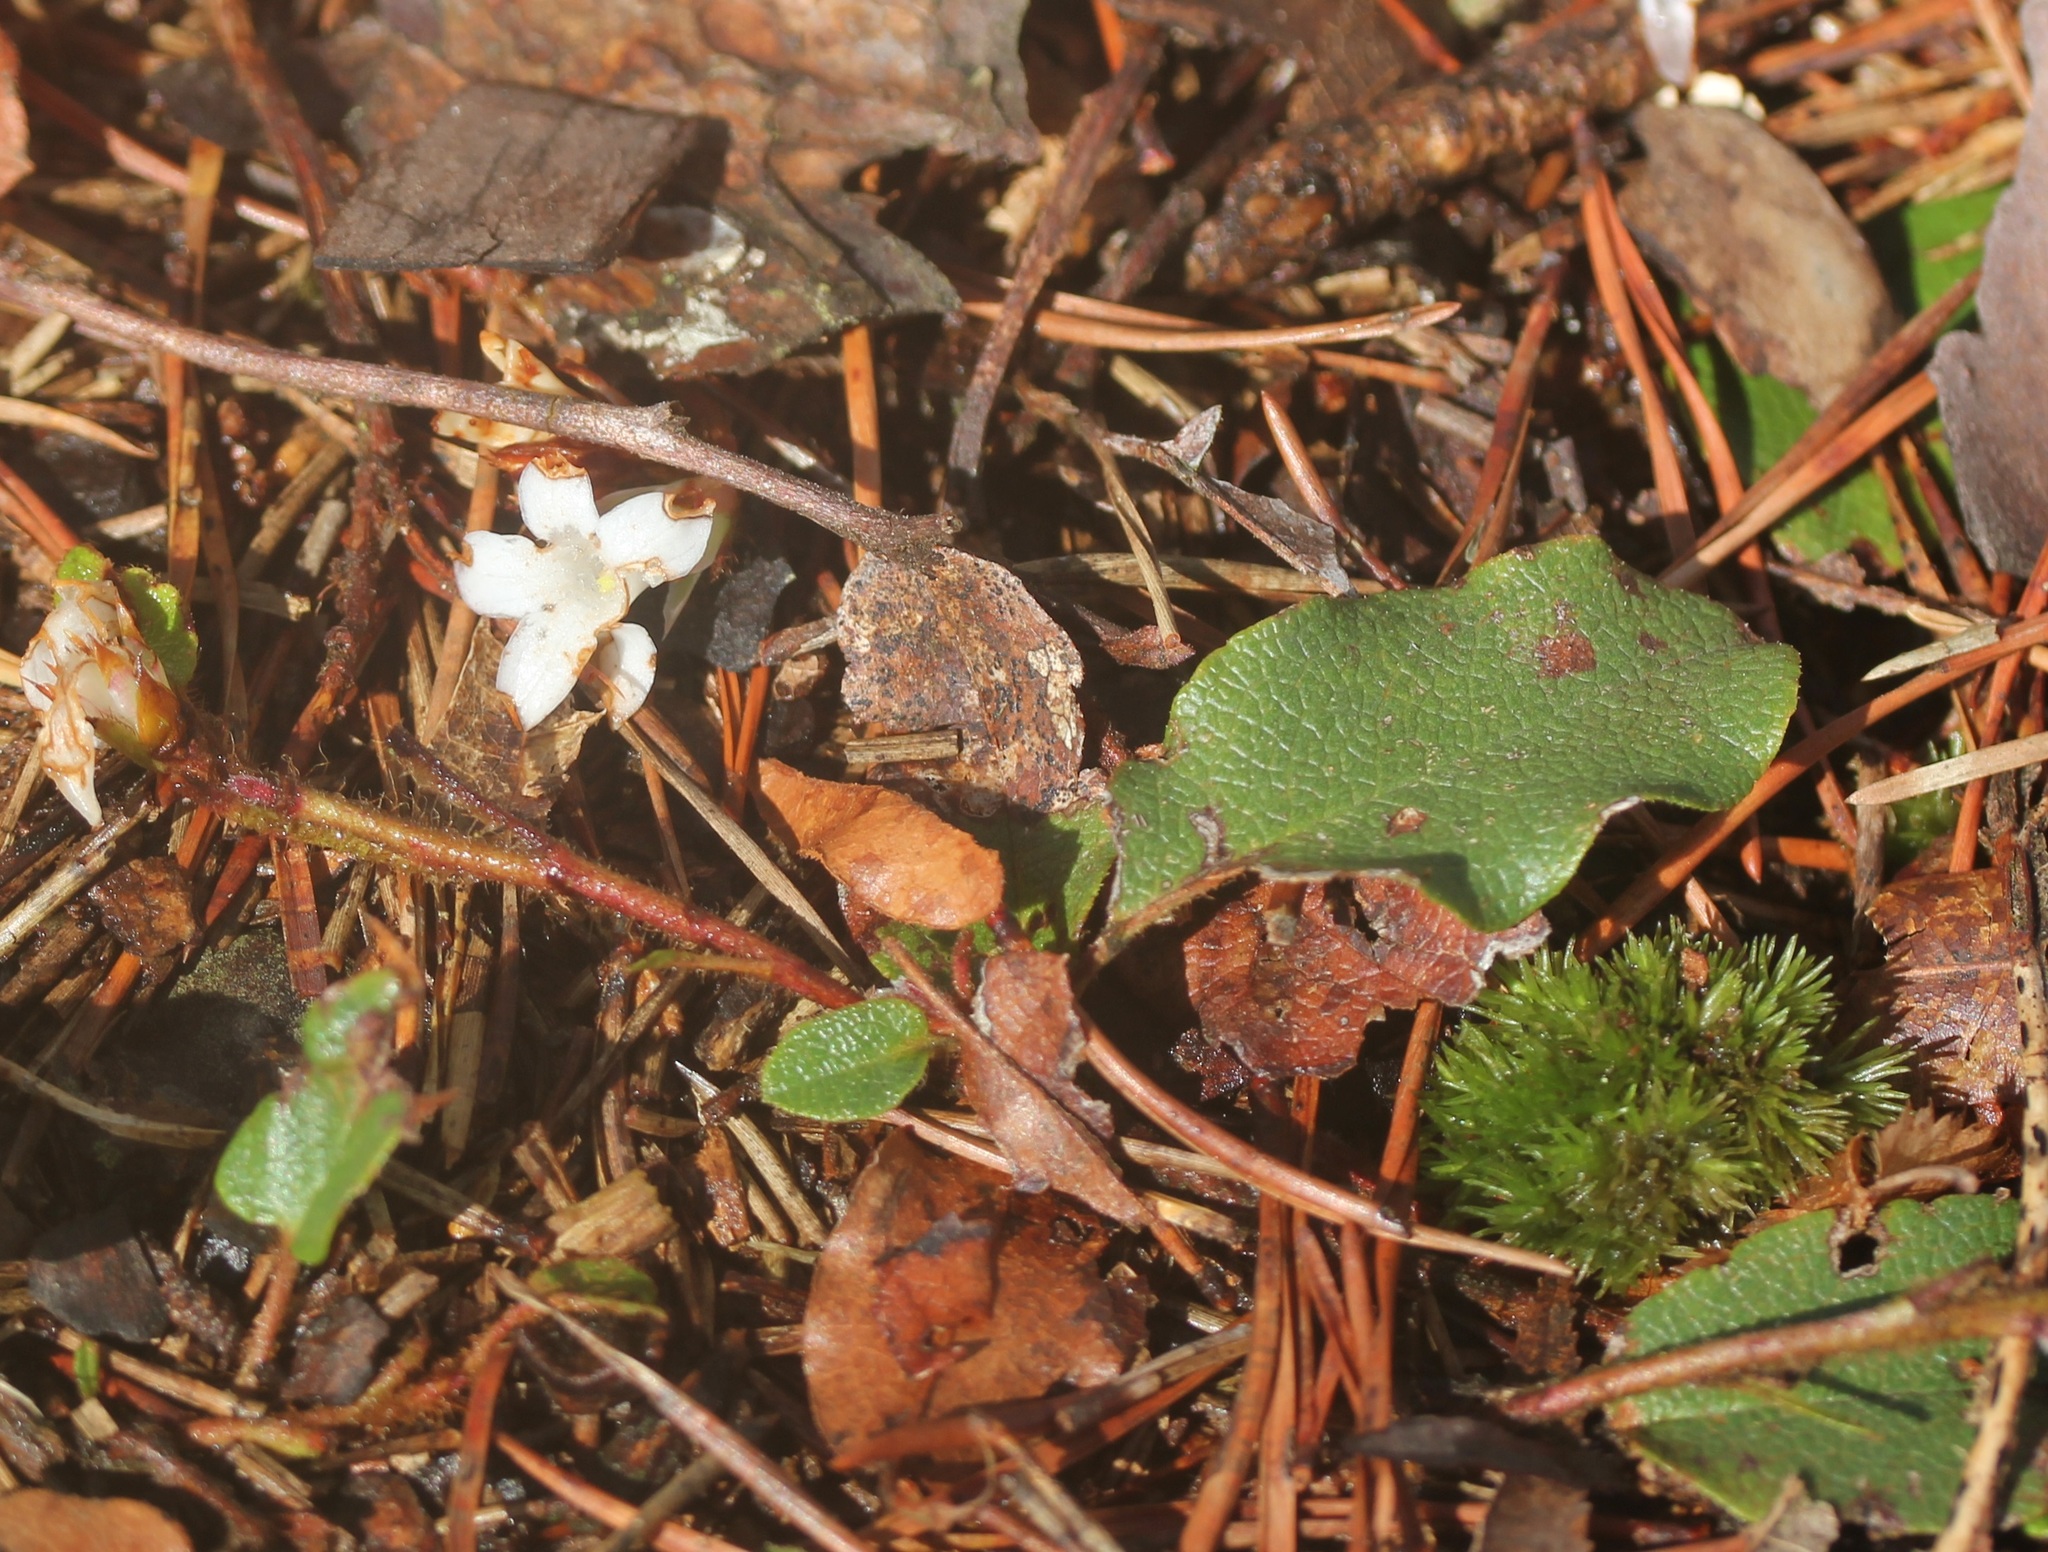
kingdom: Plantae
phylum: Tracheophyta
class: Magnoliopsida
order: Ericales
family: Ericaceae
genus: Epigaea
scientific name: Epigaea repens
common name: Gravelroot
